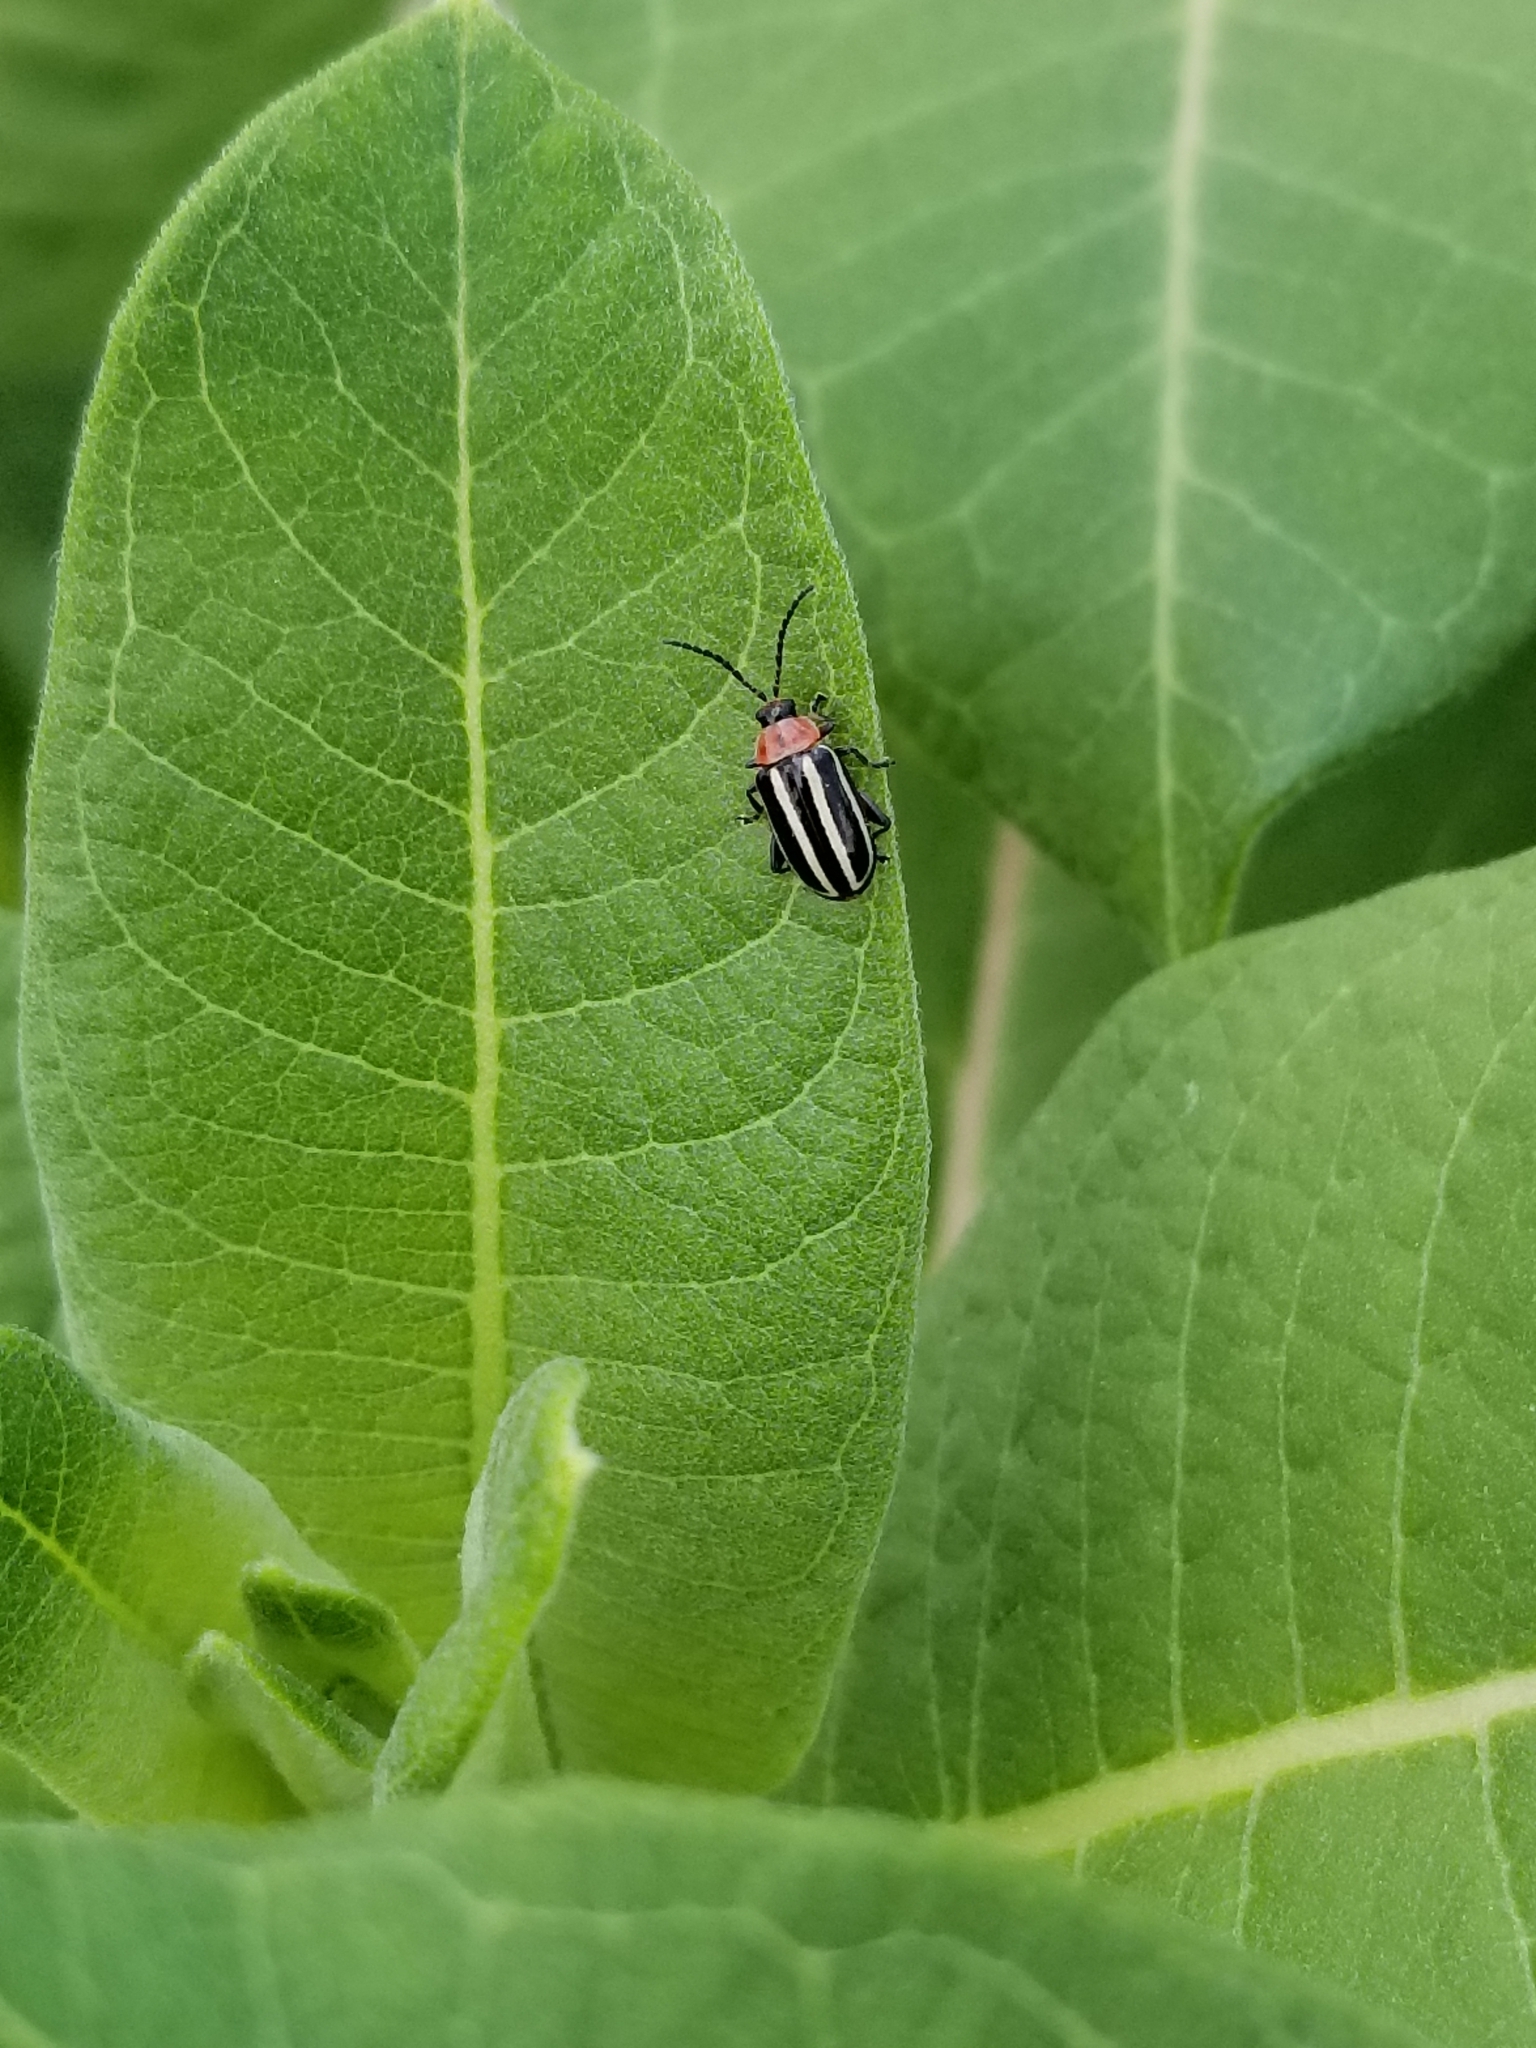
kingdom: Animalia
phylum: Arthropoda
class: Insecta
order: Coleoptera
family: Chrysomelidae
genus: Disonycha
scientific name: Disonycha glabrata
